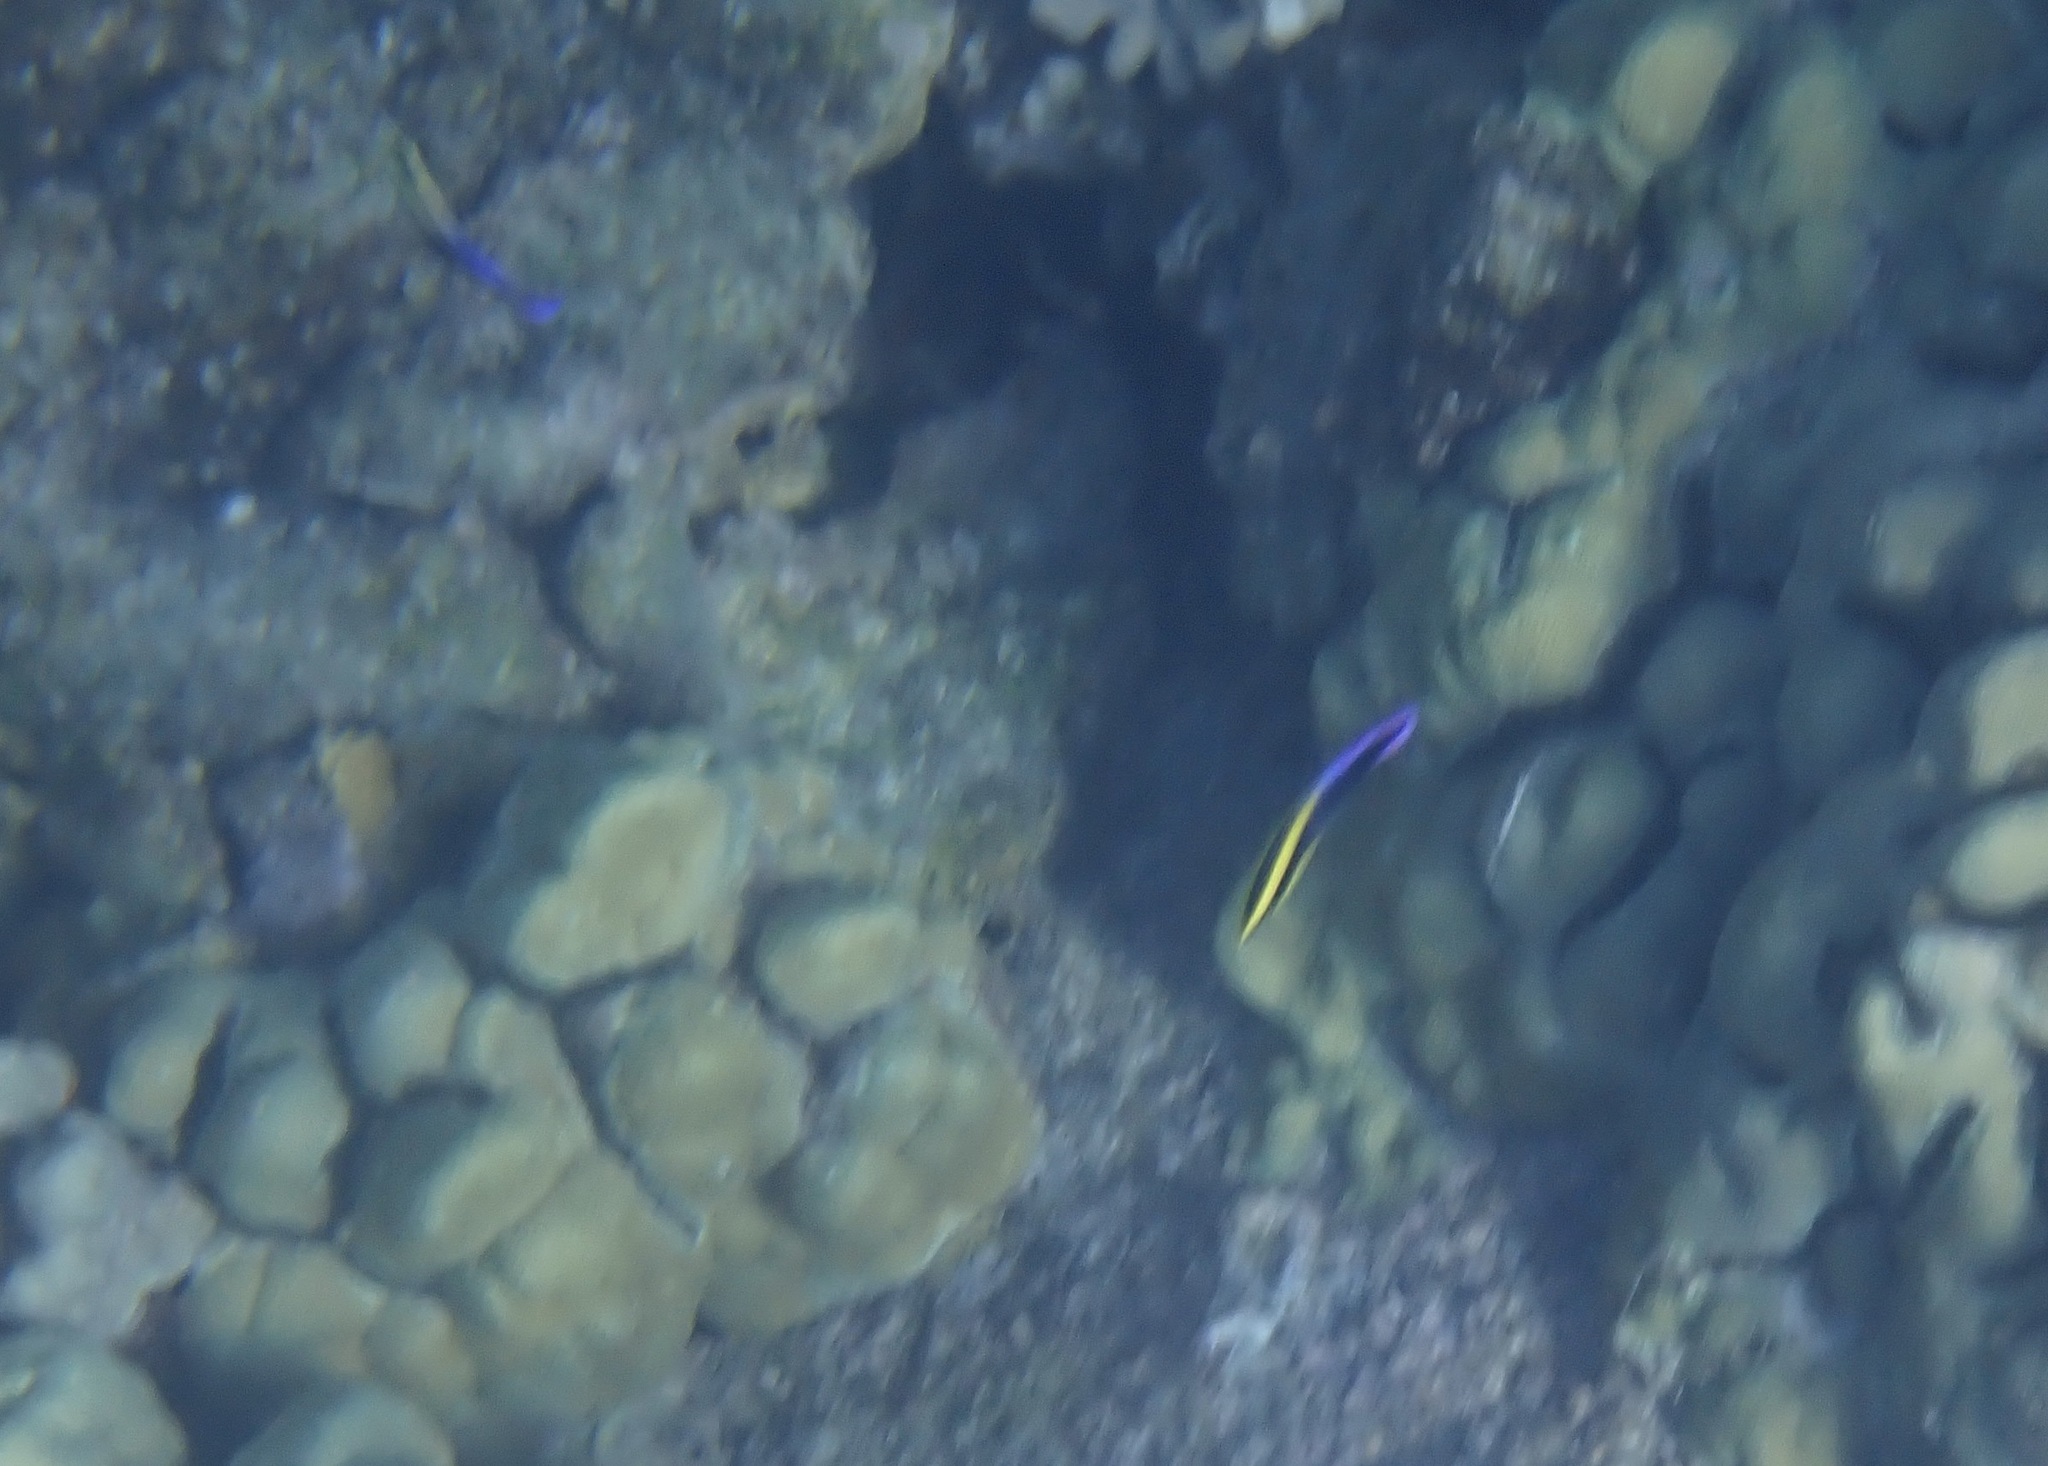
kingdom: Animalia
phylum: Chordata
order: Perciformes
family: Labridae
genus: Labroides
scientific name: Labroides phthirophagus
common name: Cleaner wrasse
